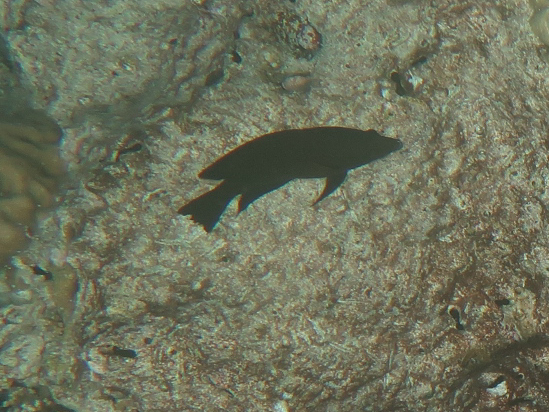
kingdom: Animalia
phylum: Chordata
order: Perciformes
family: Labridae
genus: Epibulus
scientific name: Epibulus insidiator
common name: Slingjaw wrasse
